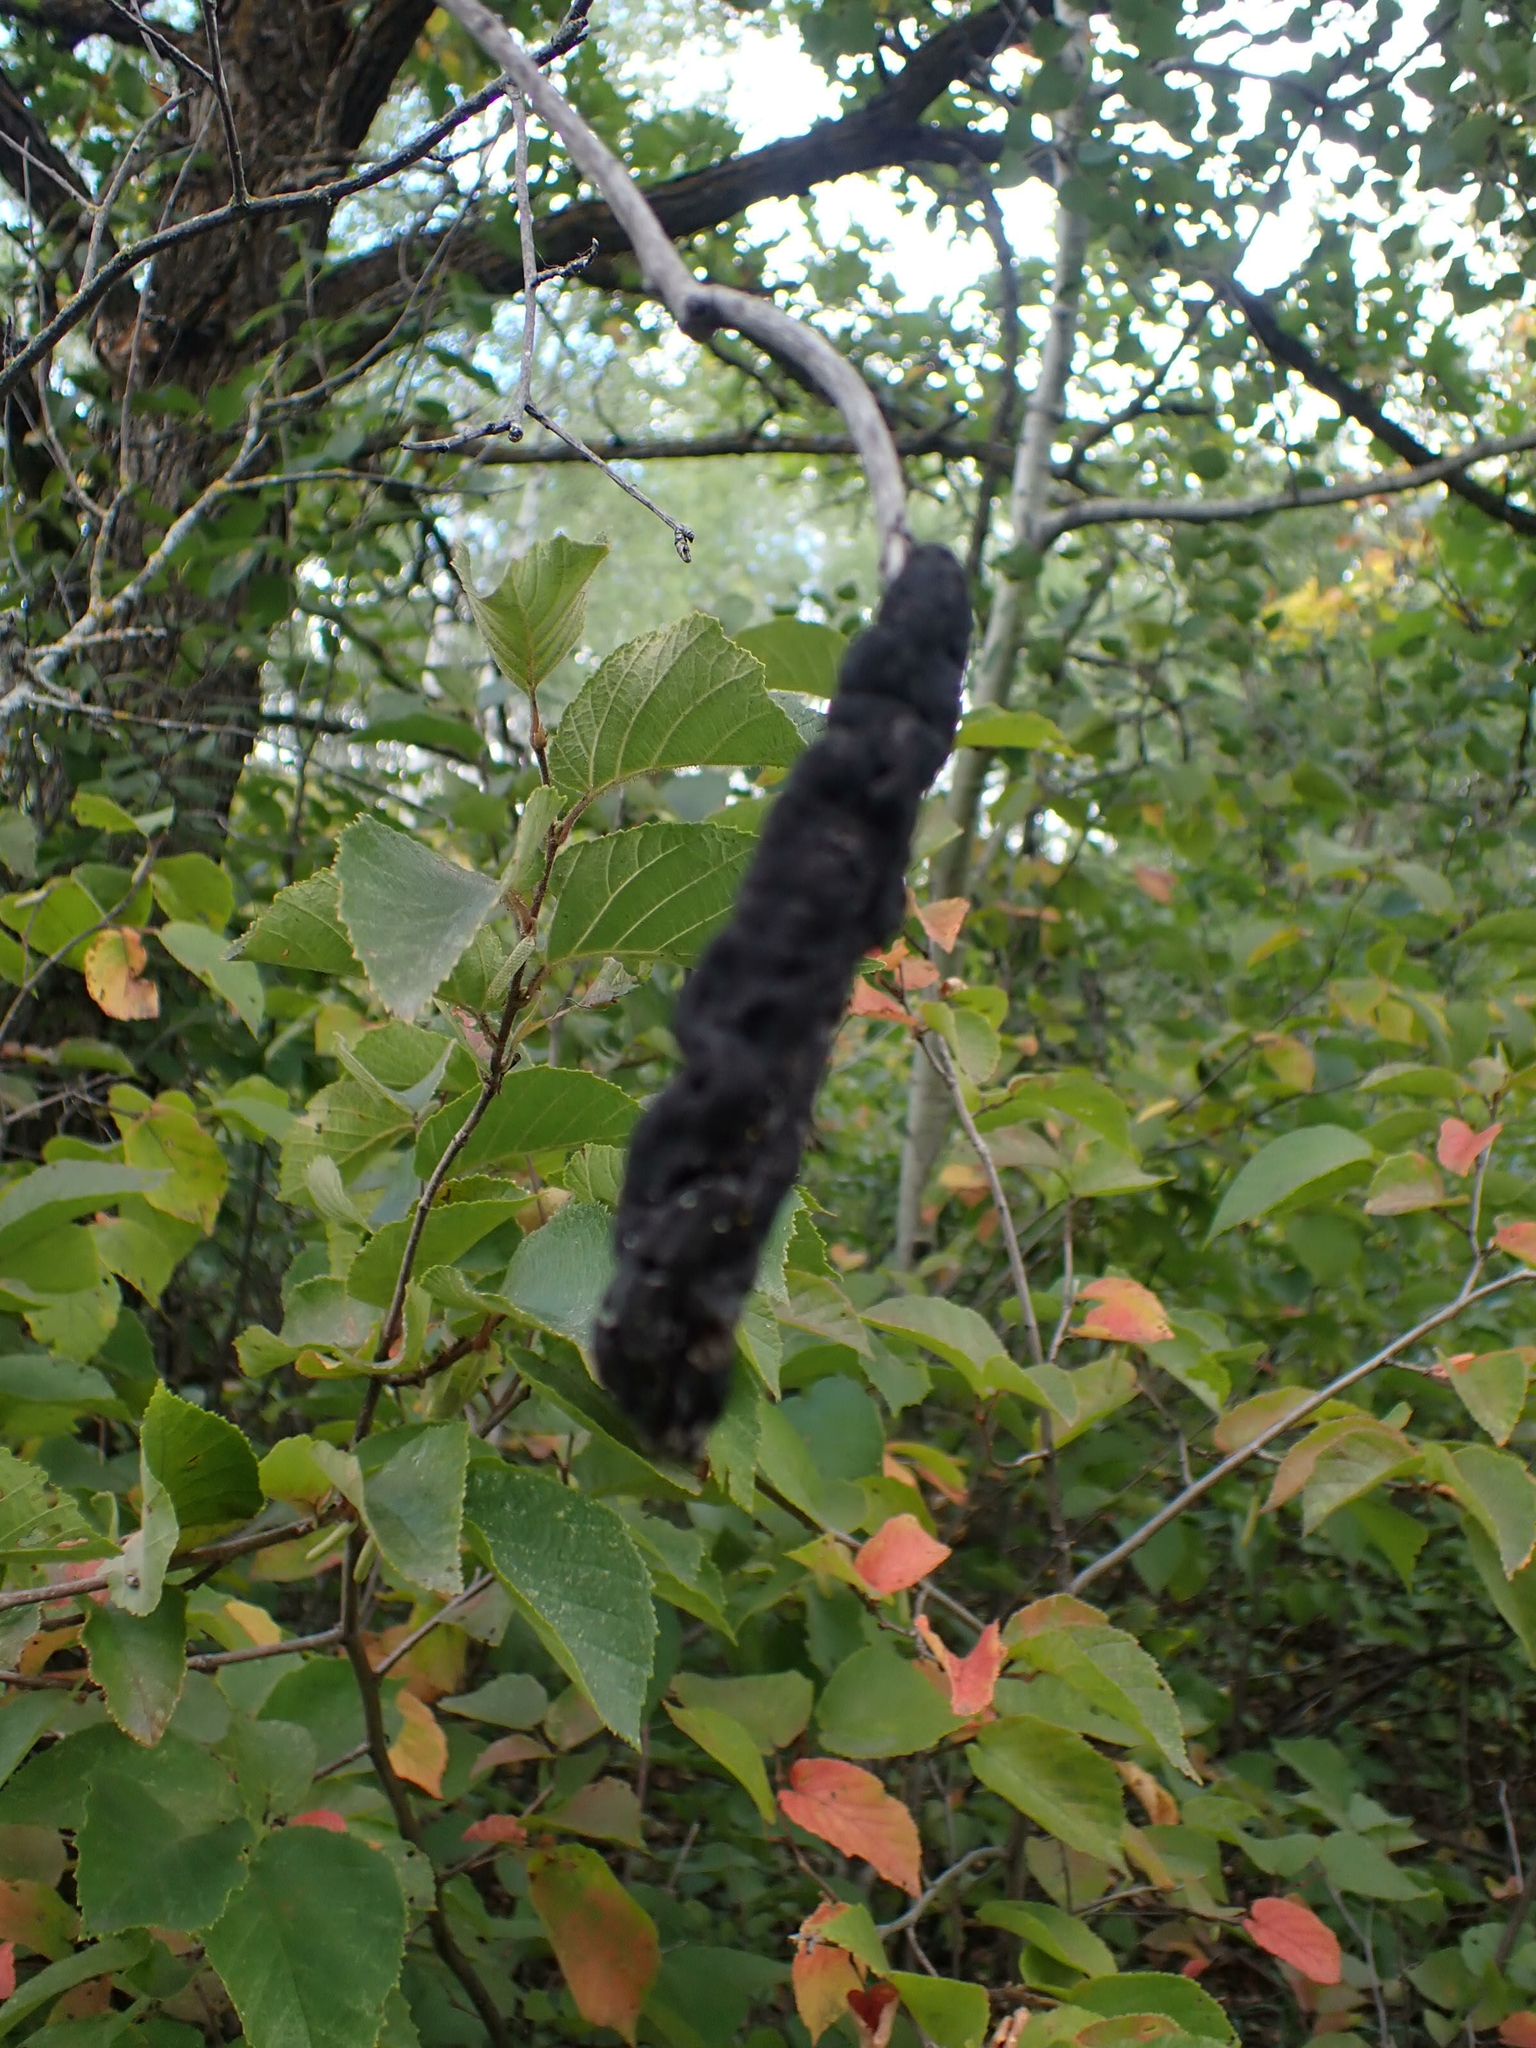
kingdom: Fungi
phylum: Ascomycota
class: Dothideomycetes
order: Venturiales
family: Venturiaceae
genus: Apiosporina
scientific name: Apiosporina morbosa
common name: Black knot
